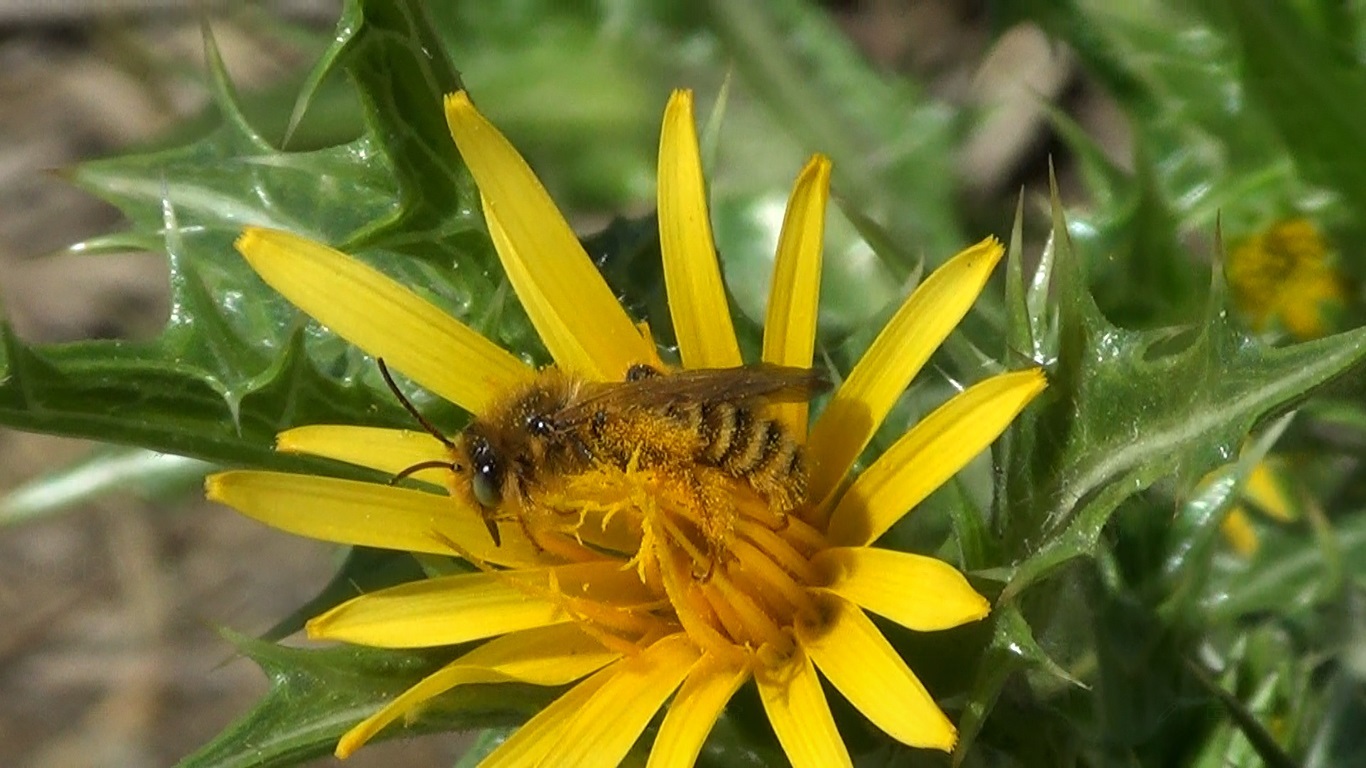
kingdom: Animalia
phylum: Arthropoda
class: Insecta
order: Hymenoptera
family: Melittidae
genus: Dasypoda
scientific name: Dasypoda visnaga
